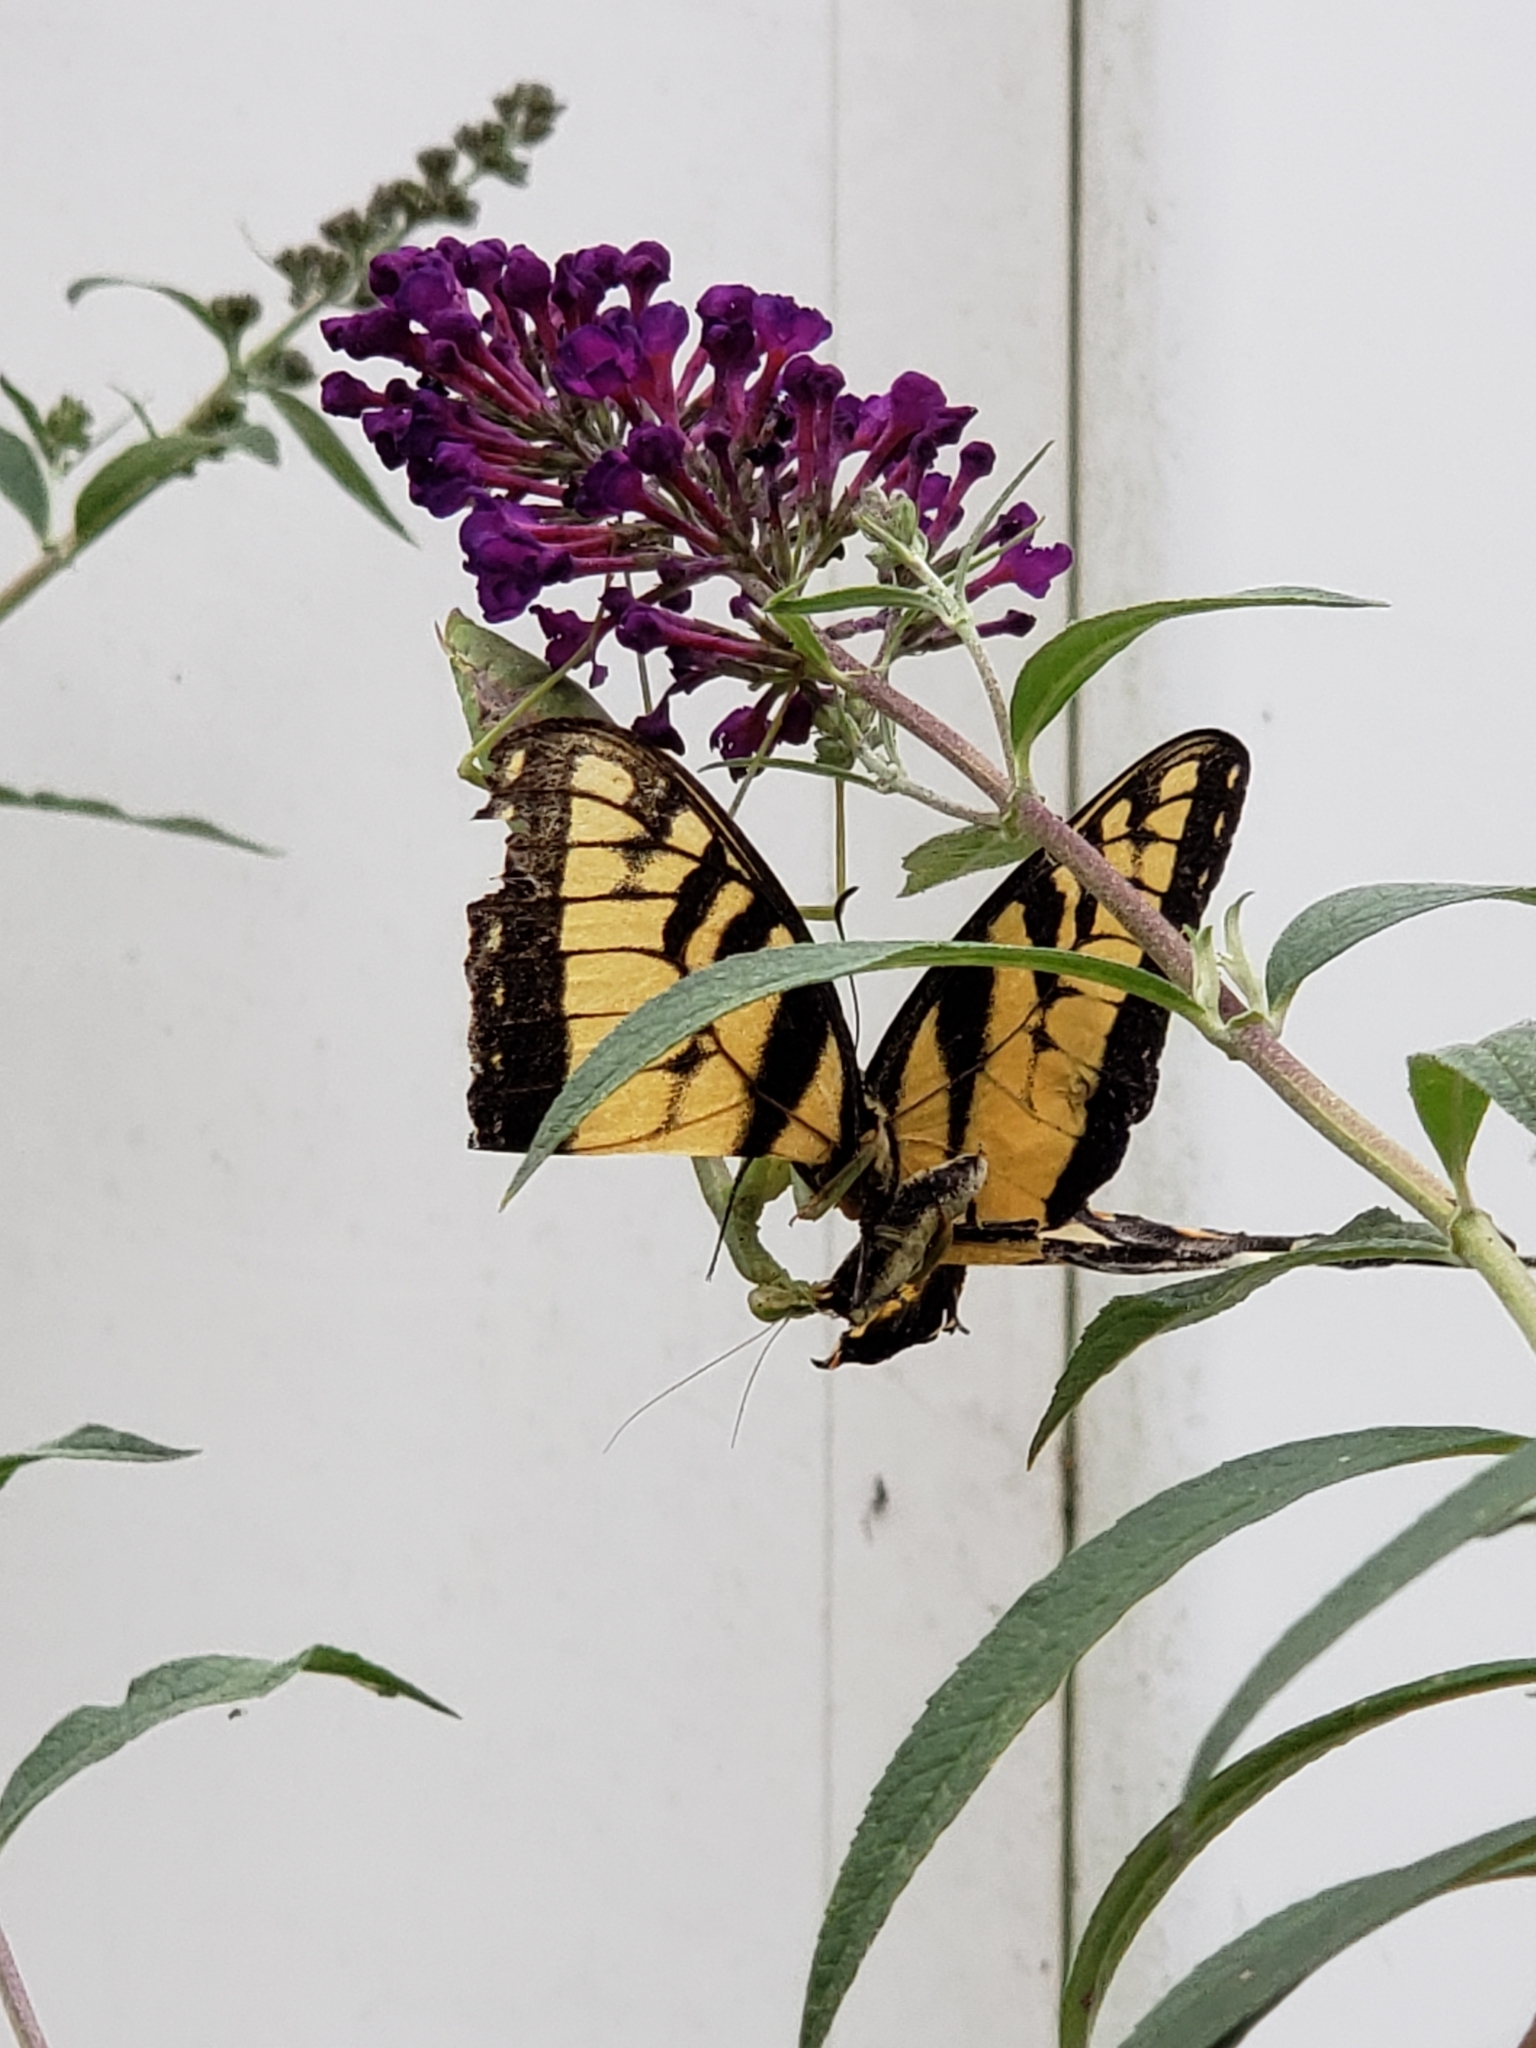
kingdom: Animalia
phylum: Arthropoda
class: Insecta
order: Lepidoptera
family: Papilionidae
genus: Papilio
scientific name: Papilio glaucus
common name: Tiger swallowtail
